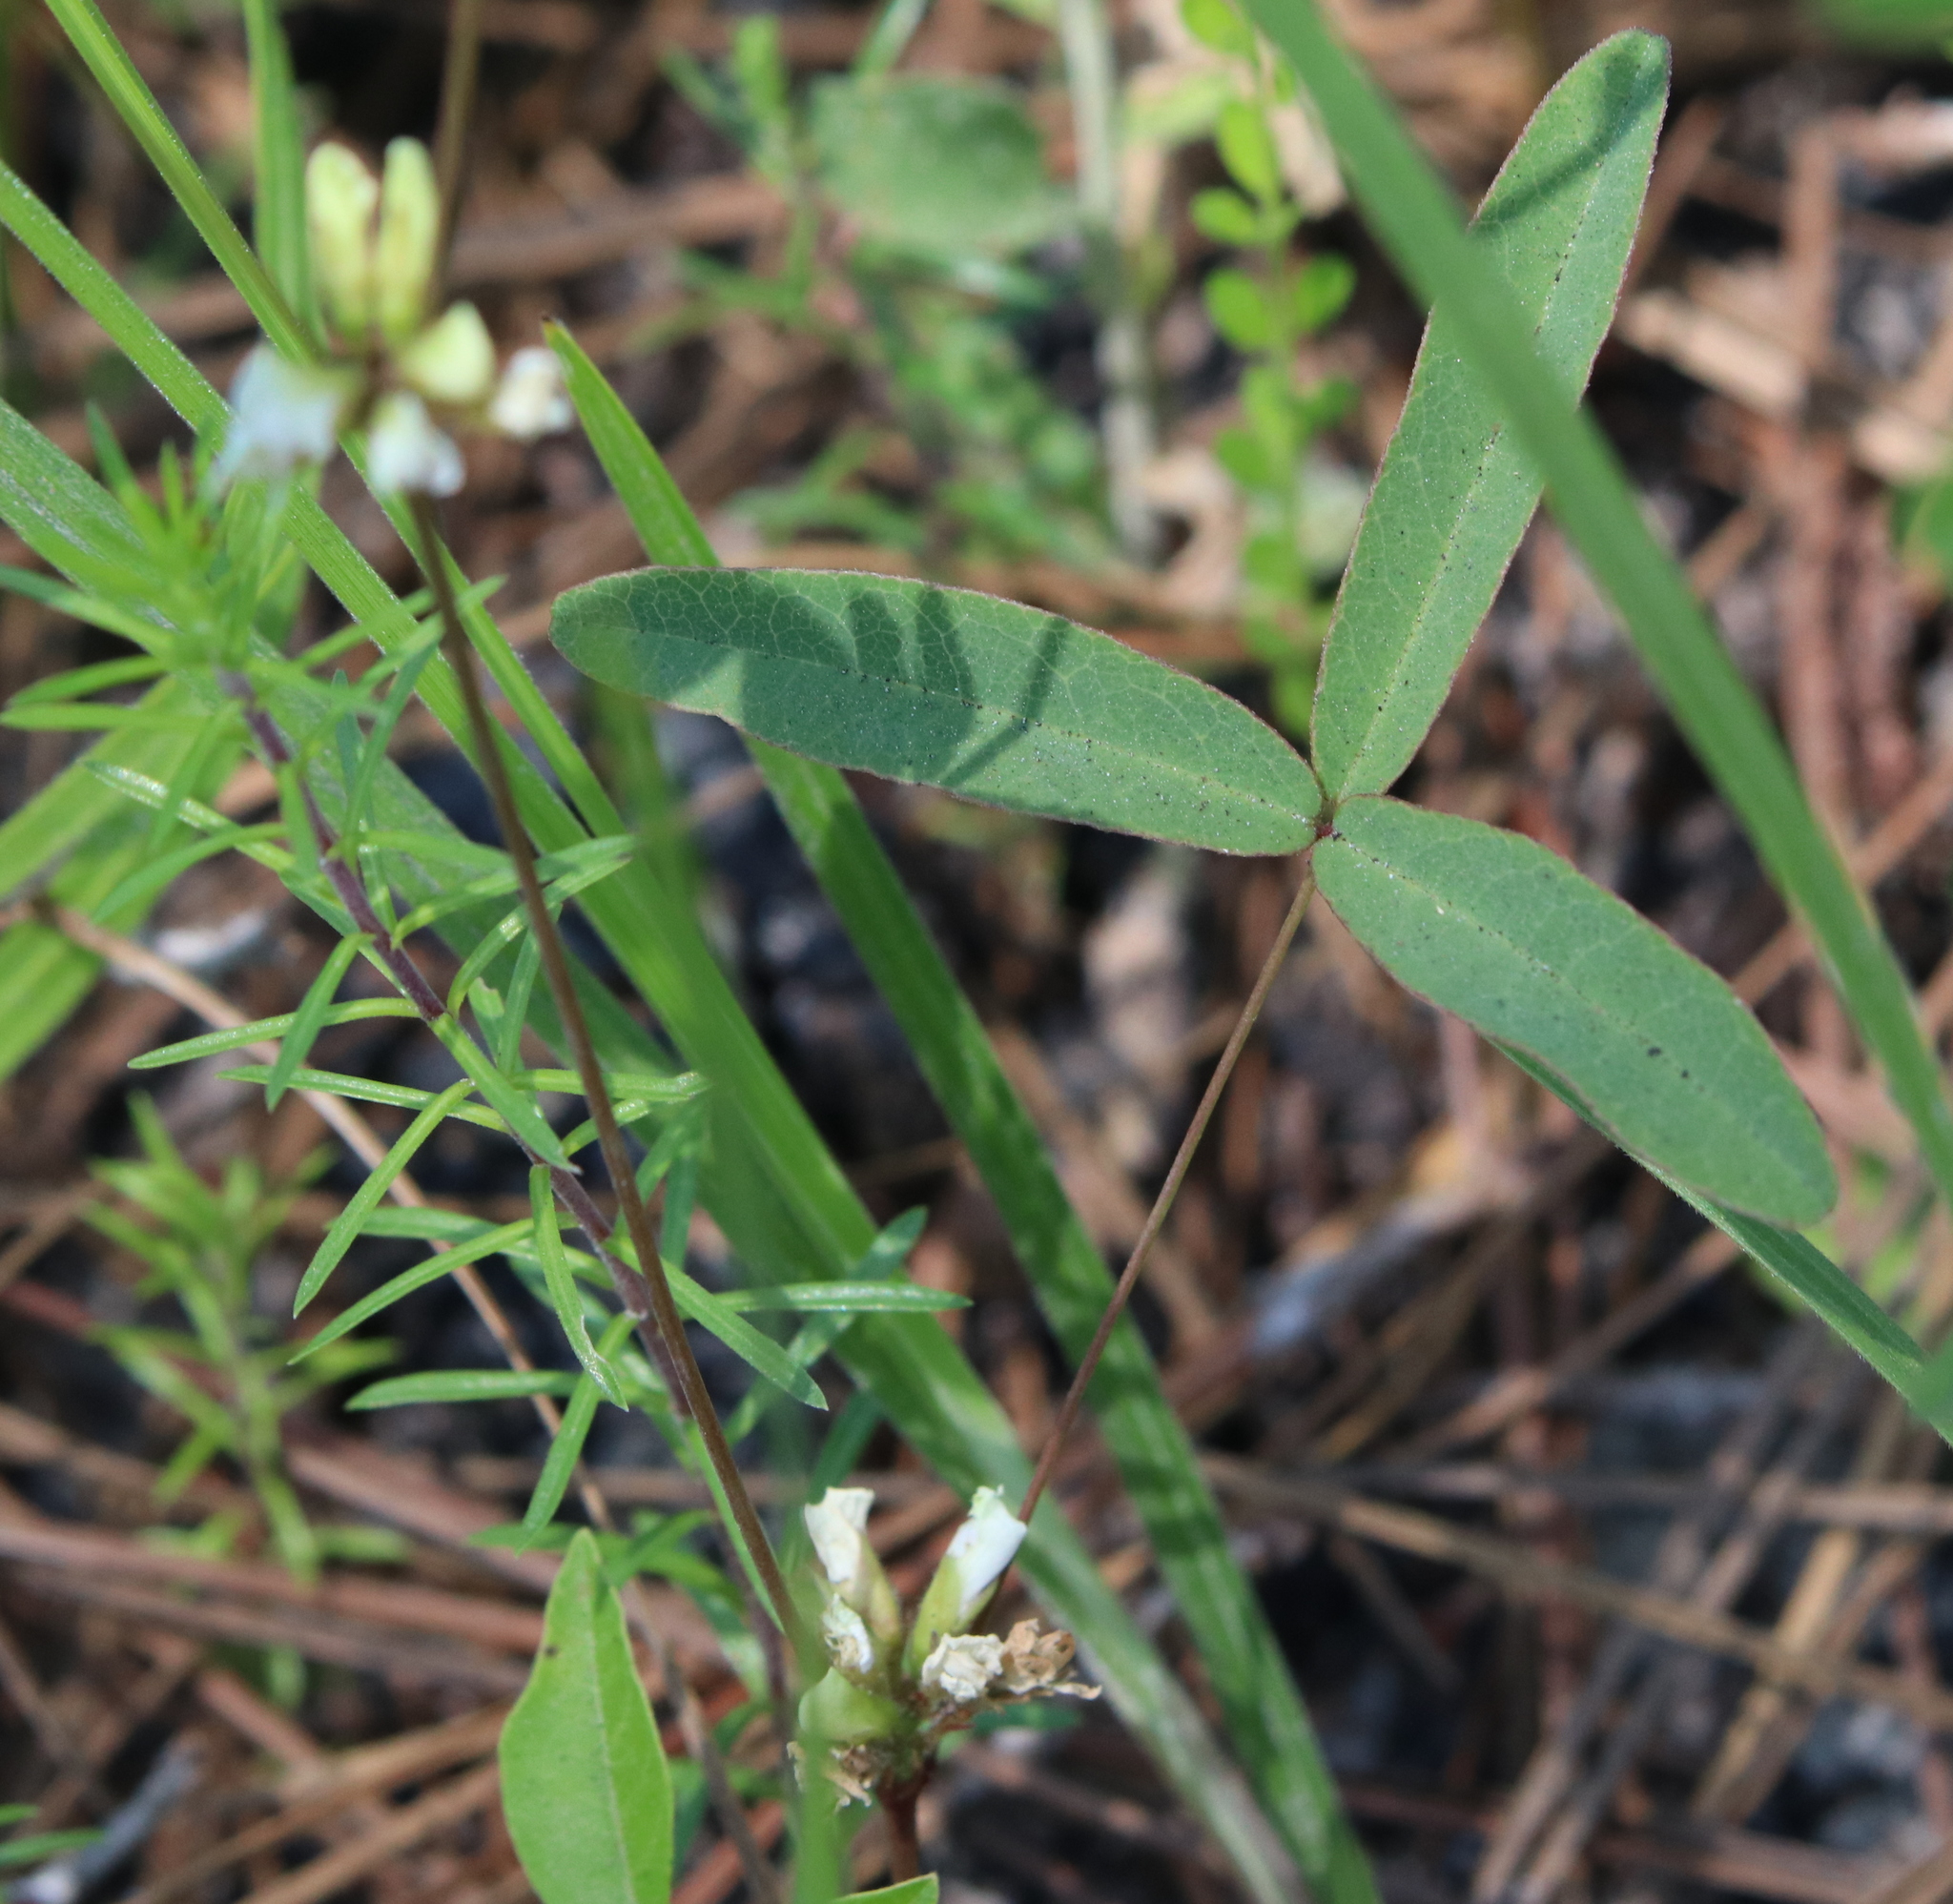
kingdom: Plantae
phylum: Tracheophyta
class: Magnoliopsida
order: Fabales
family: Fabaceae
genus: Galactia
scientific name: Galactia erecta
